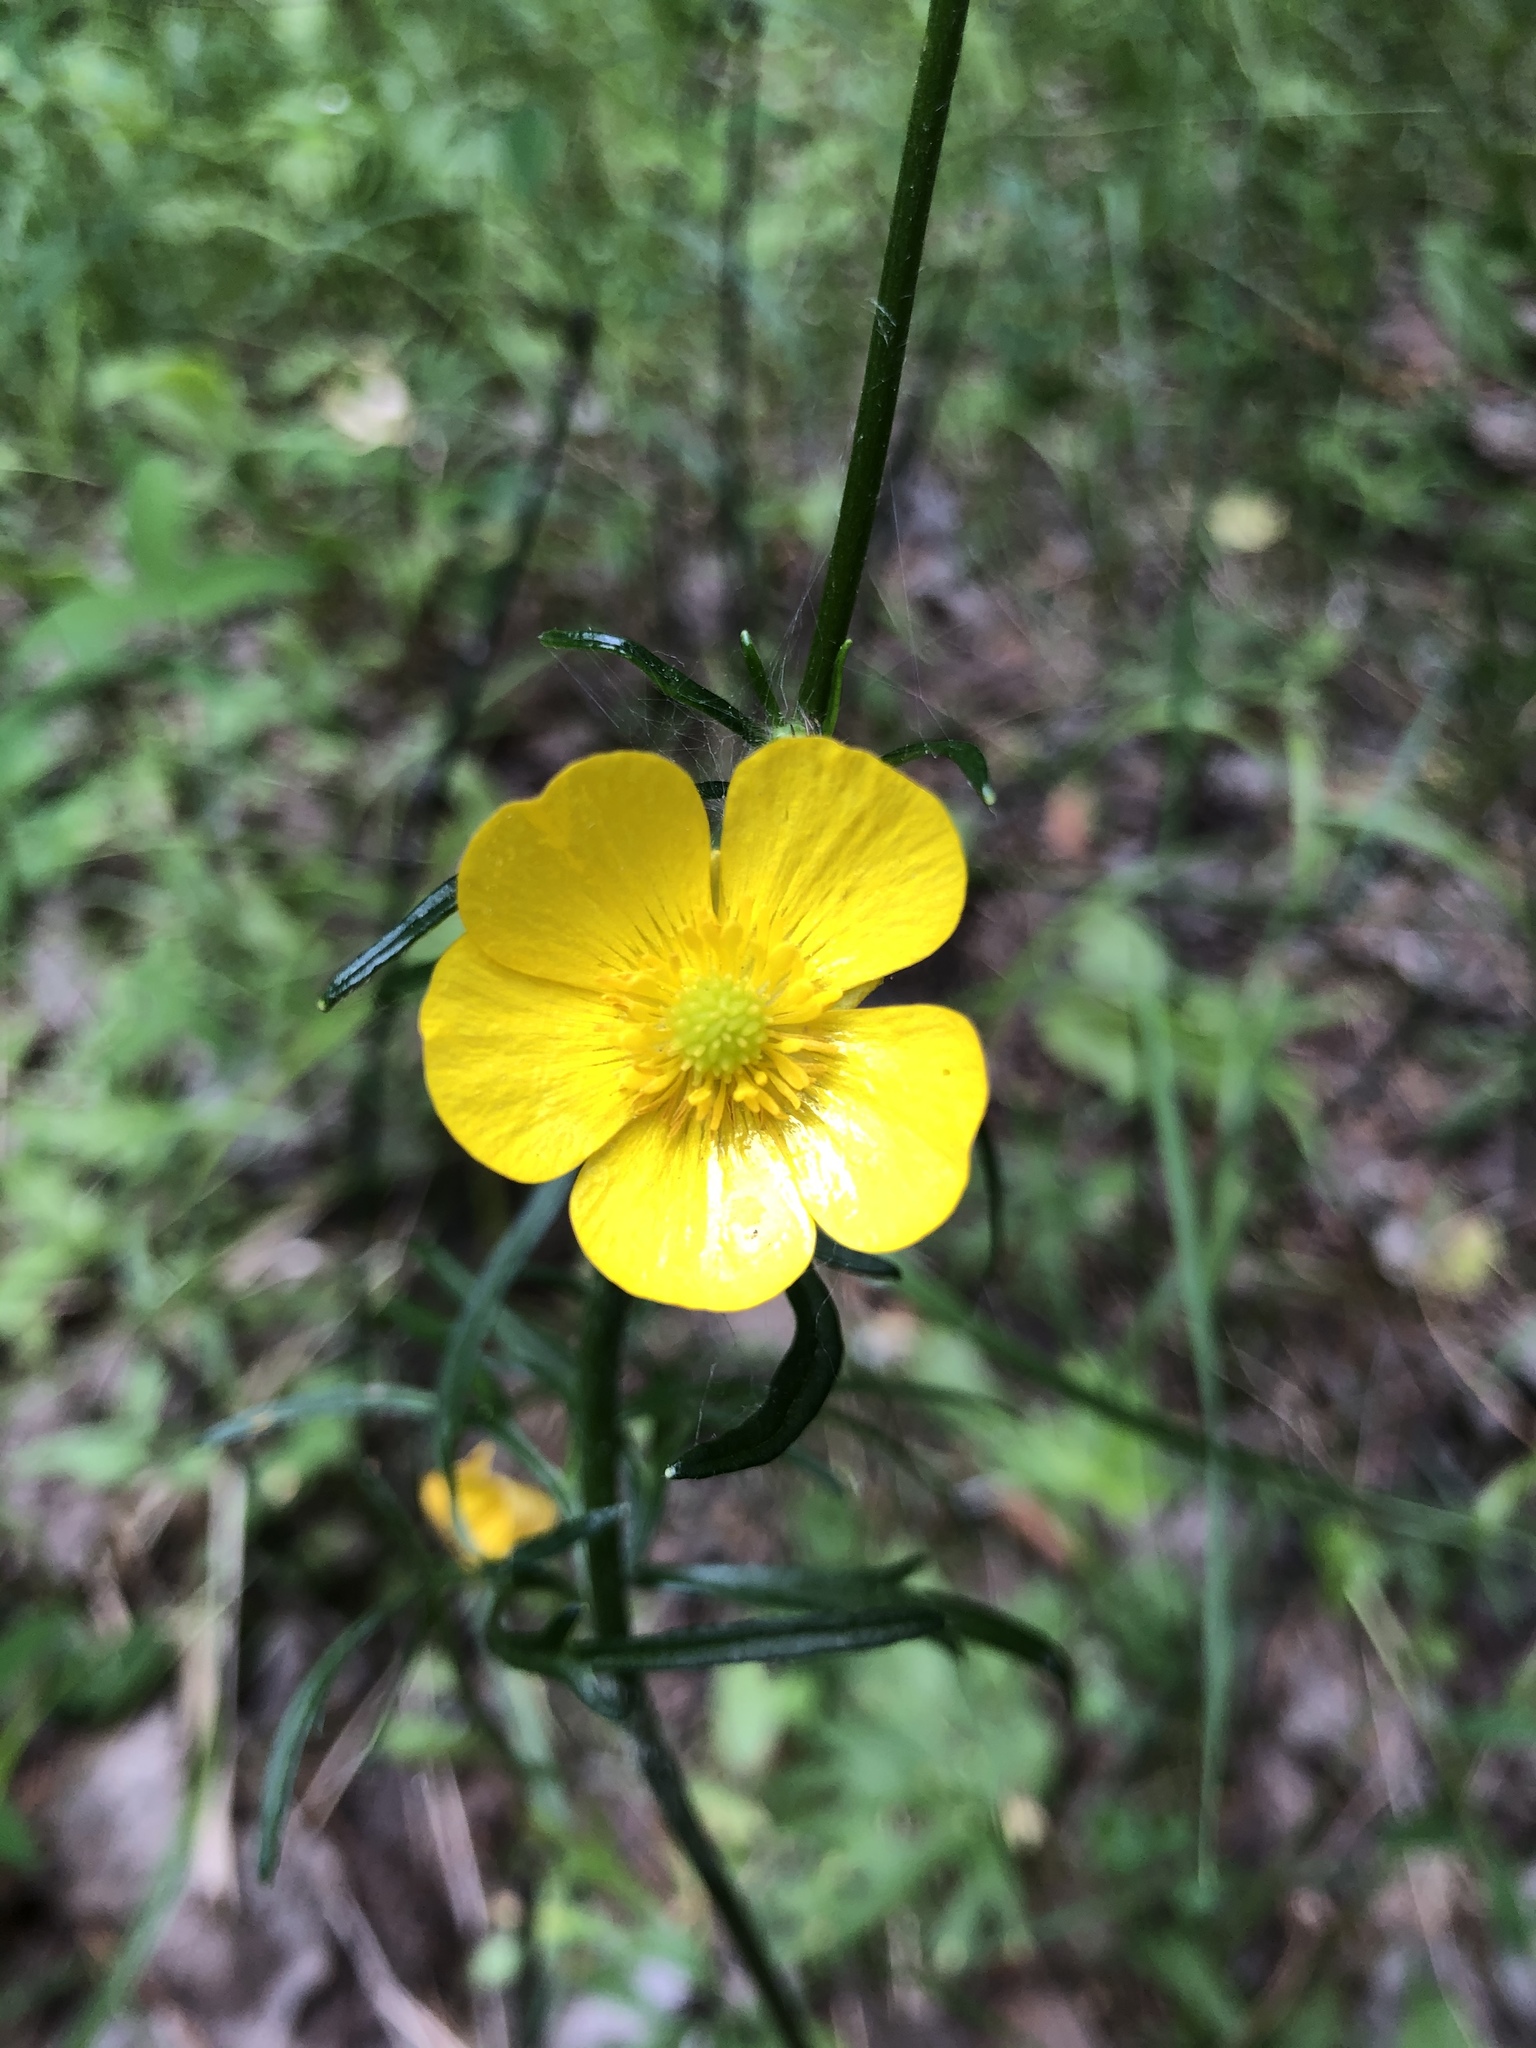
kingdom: Plantae
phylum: Tracheophyta
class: Magnoliopsida
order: Ranunculales
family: Ranunculaceae
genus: Ranunculus
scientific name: Ranunculus polyanthemos
